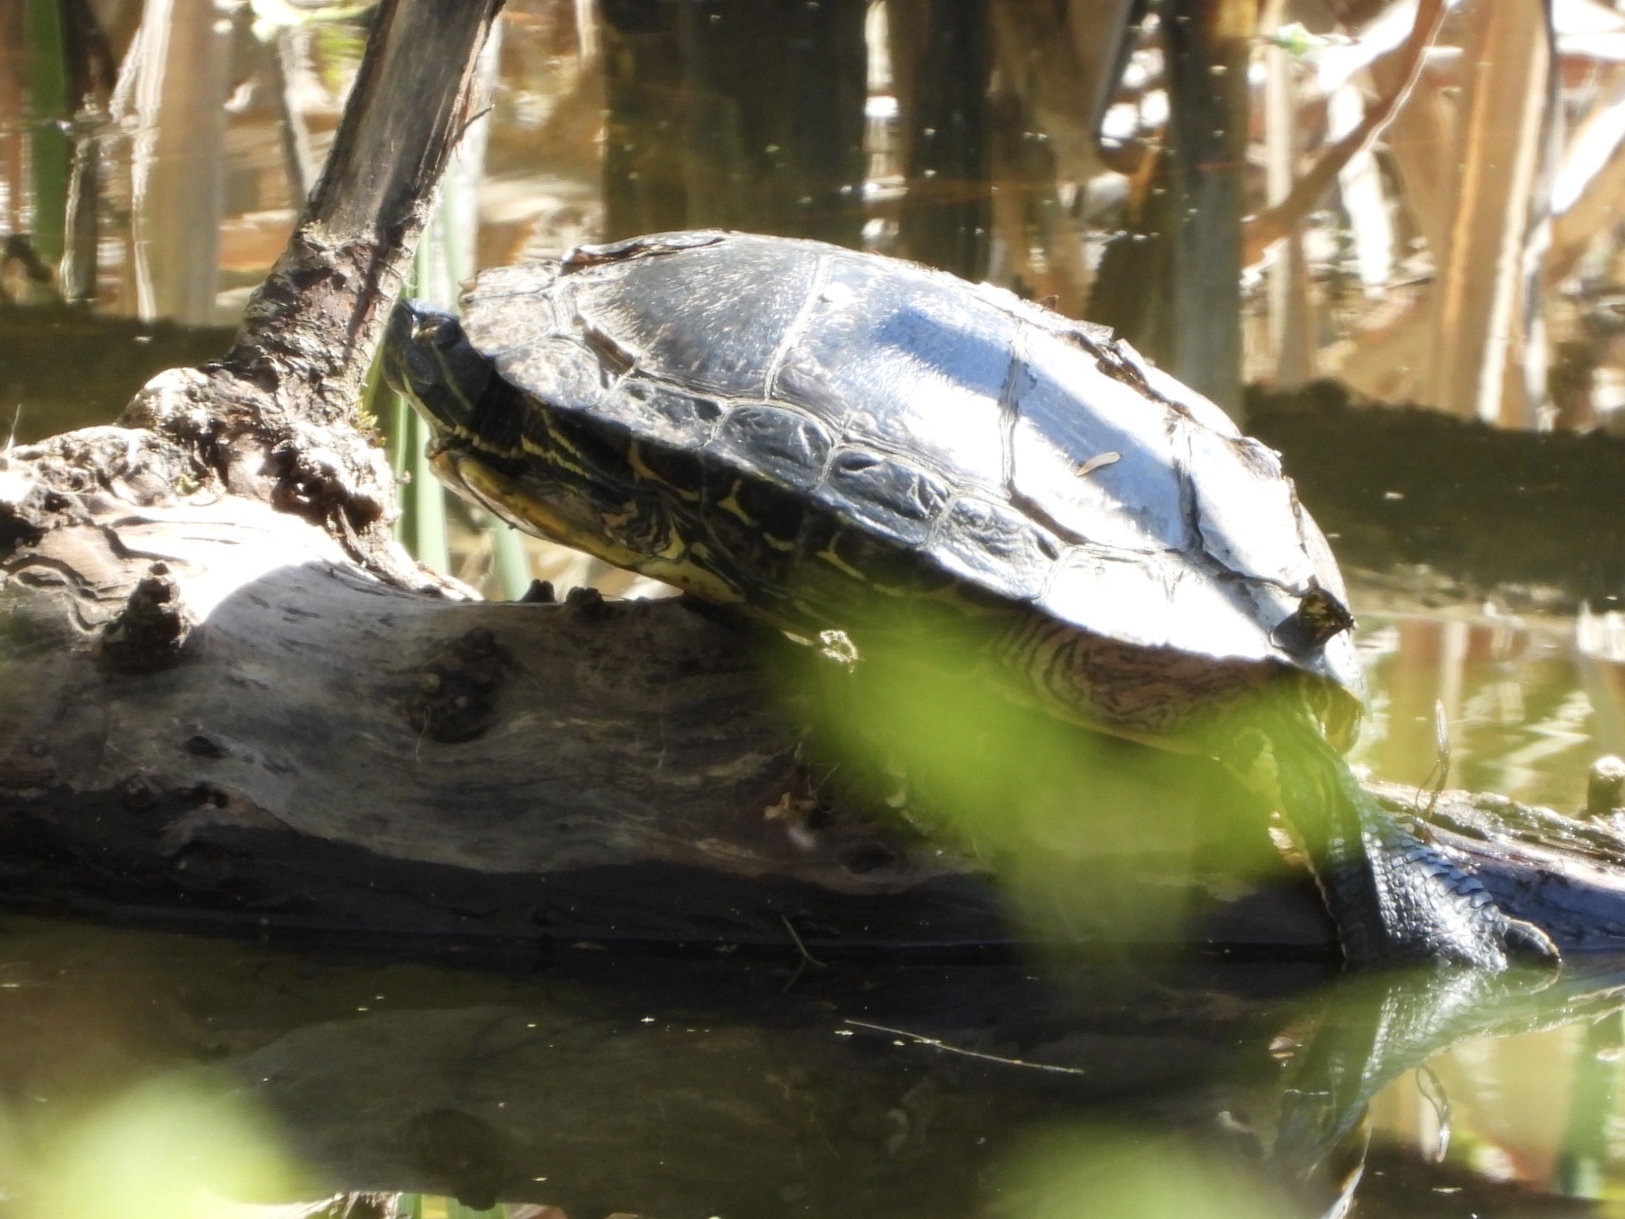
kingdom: Animalia
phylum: Chordata
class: Testudines
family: Emydidae
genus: Trachemys
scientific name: Trachemys scripta
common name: Slider
